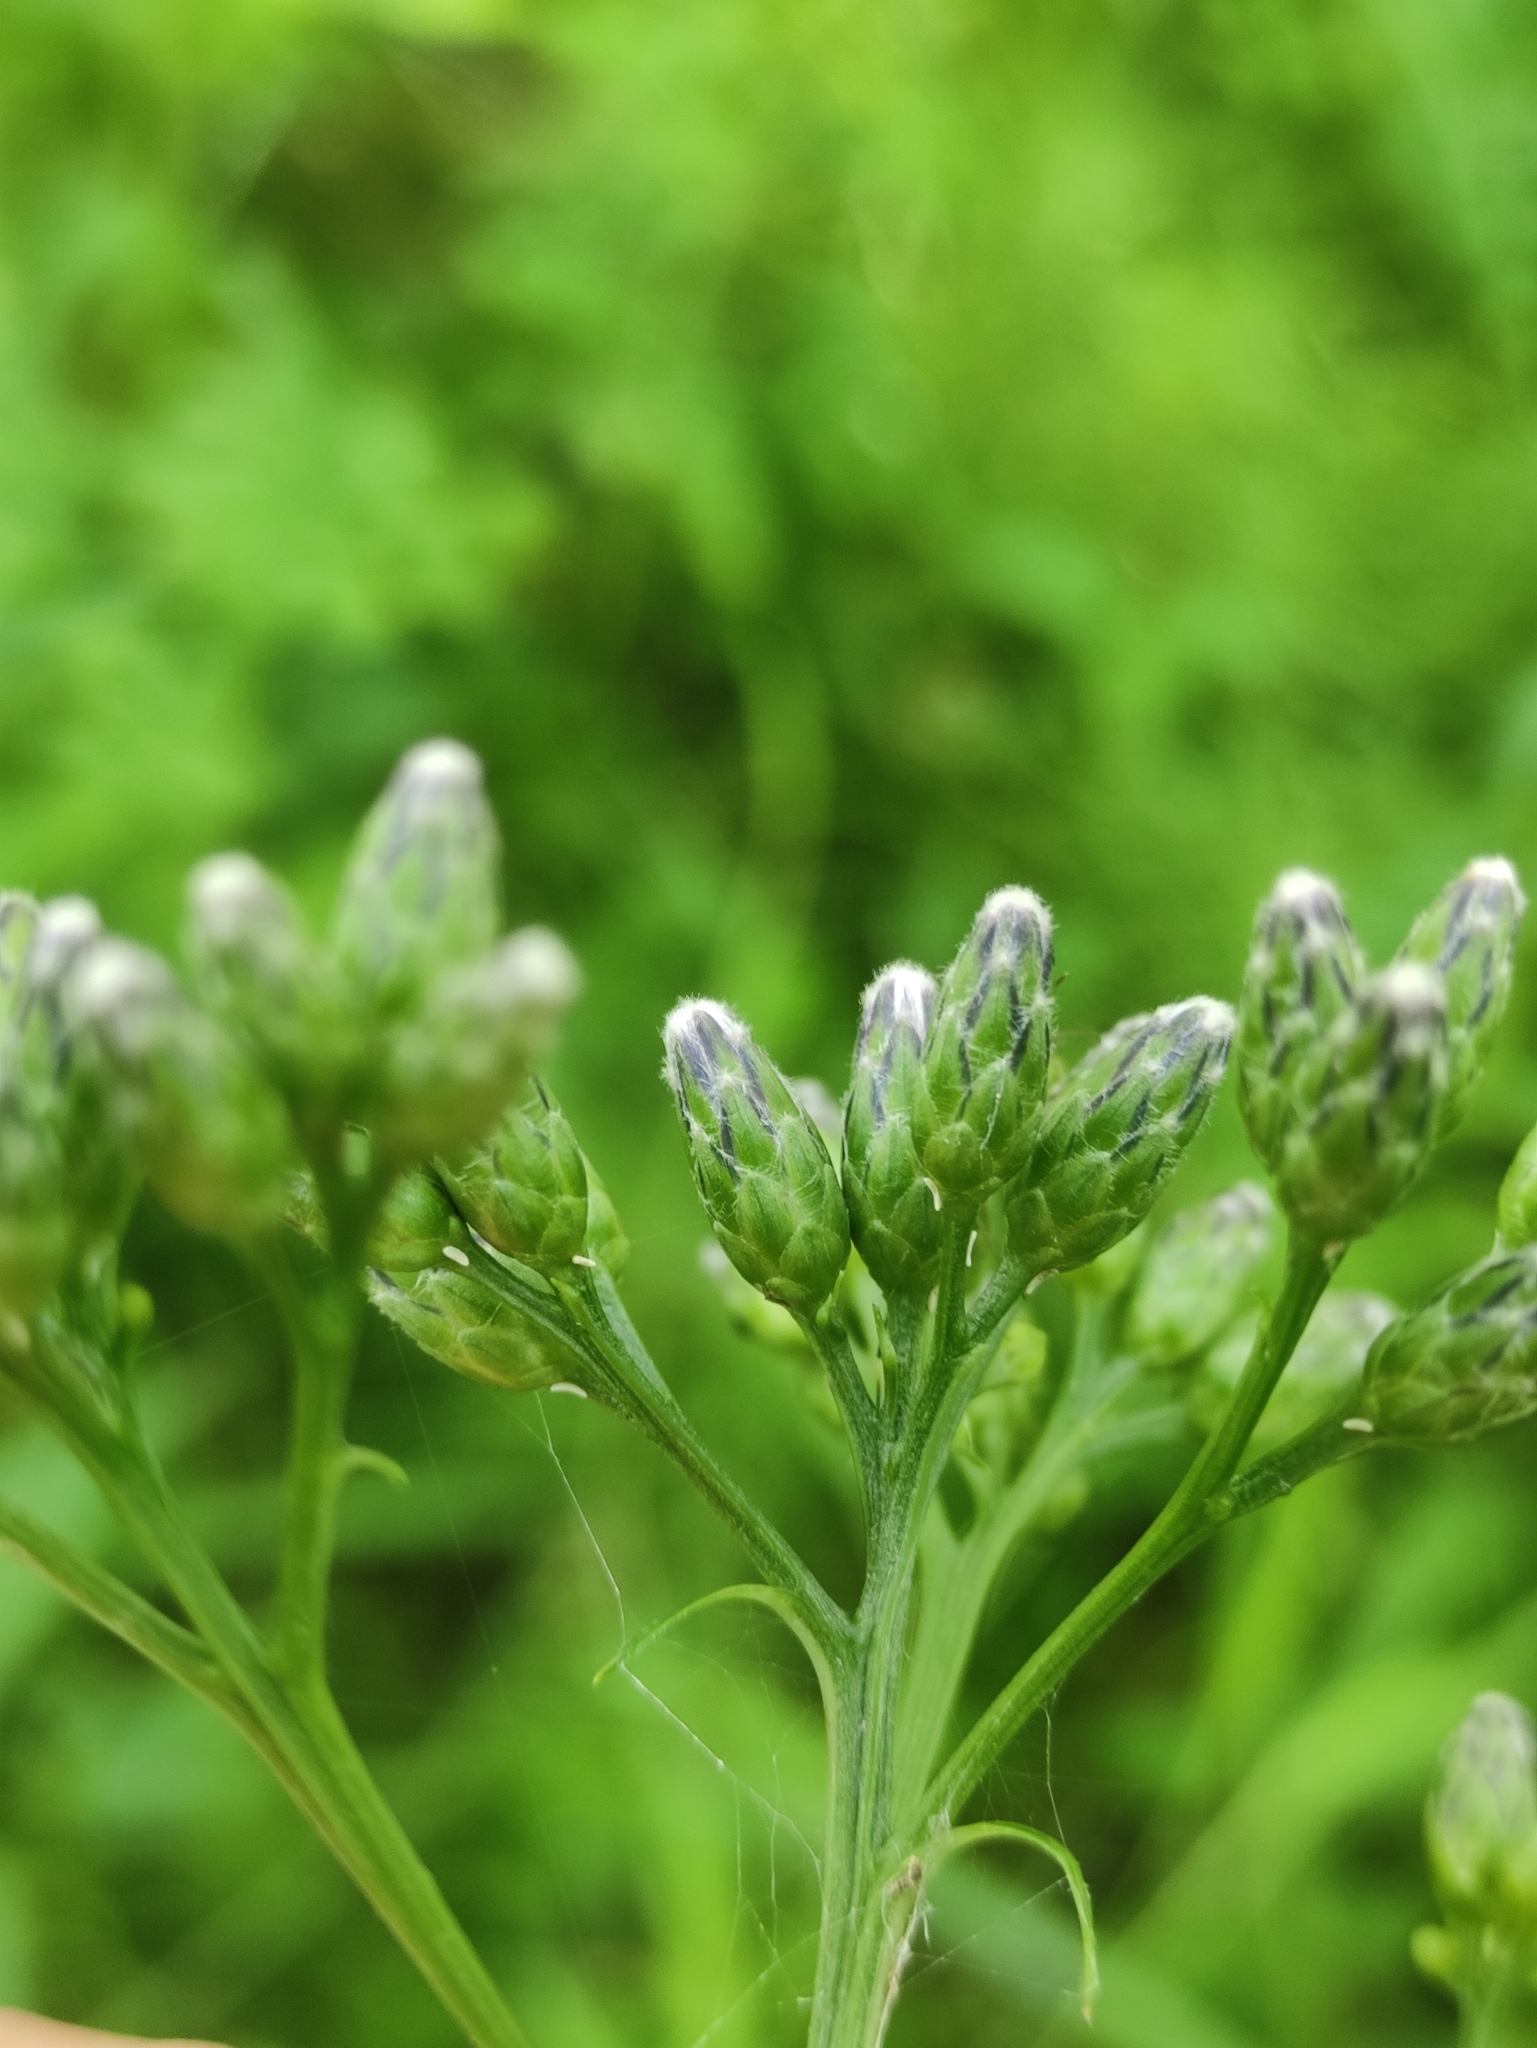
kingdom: Plantae
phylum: Tracheophyta
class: Magnoliopsida
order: Asterales
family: Asteraceae
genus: Saussurea
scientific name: Saussurea parviflora
